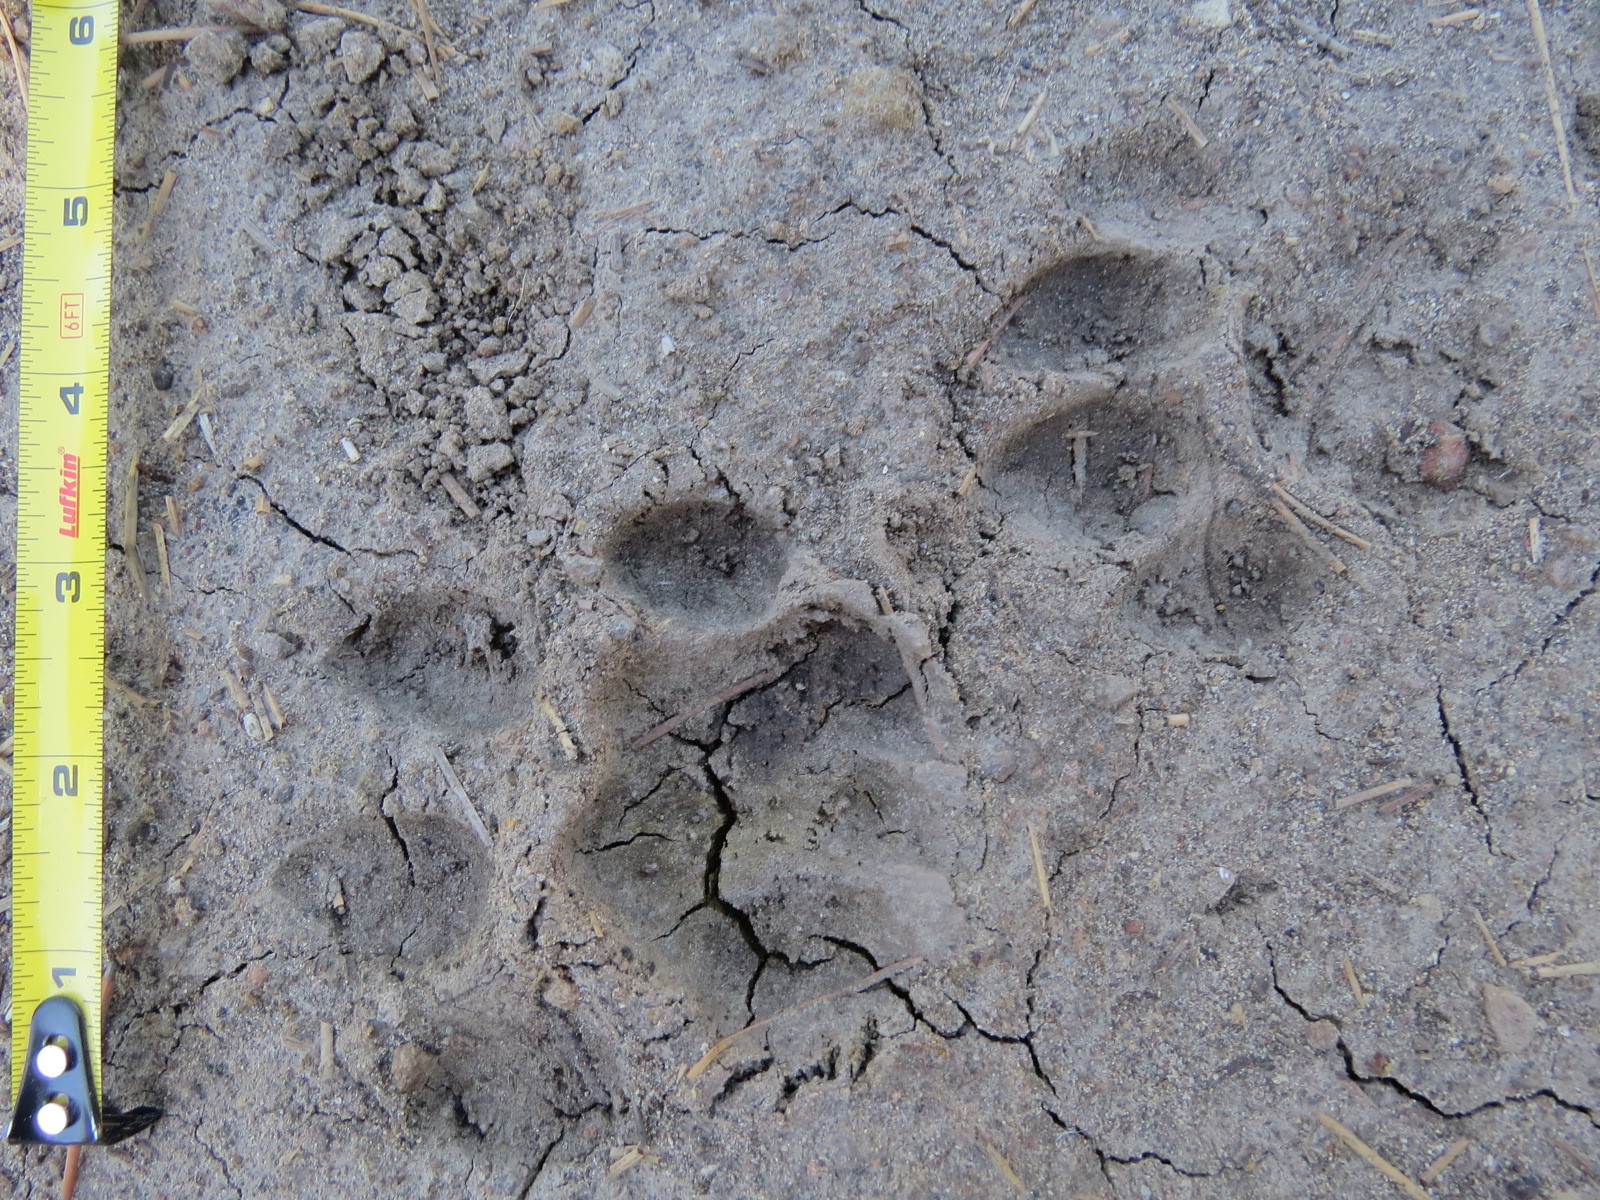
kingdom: Animalia
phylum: Chordata
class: Mammalia
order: Carnivora
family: Felidae
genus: Puma
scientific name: Puma concolor
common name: Puma
